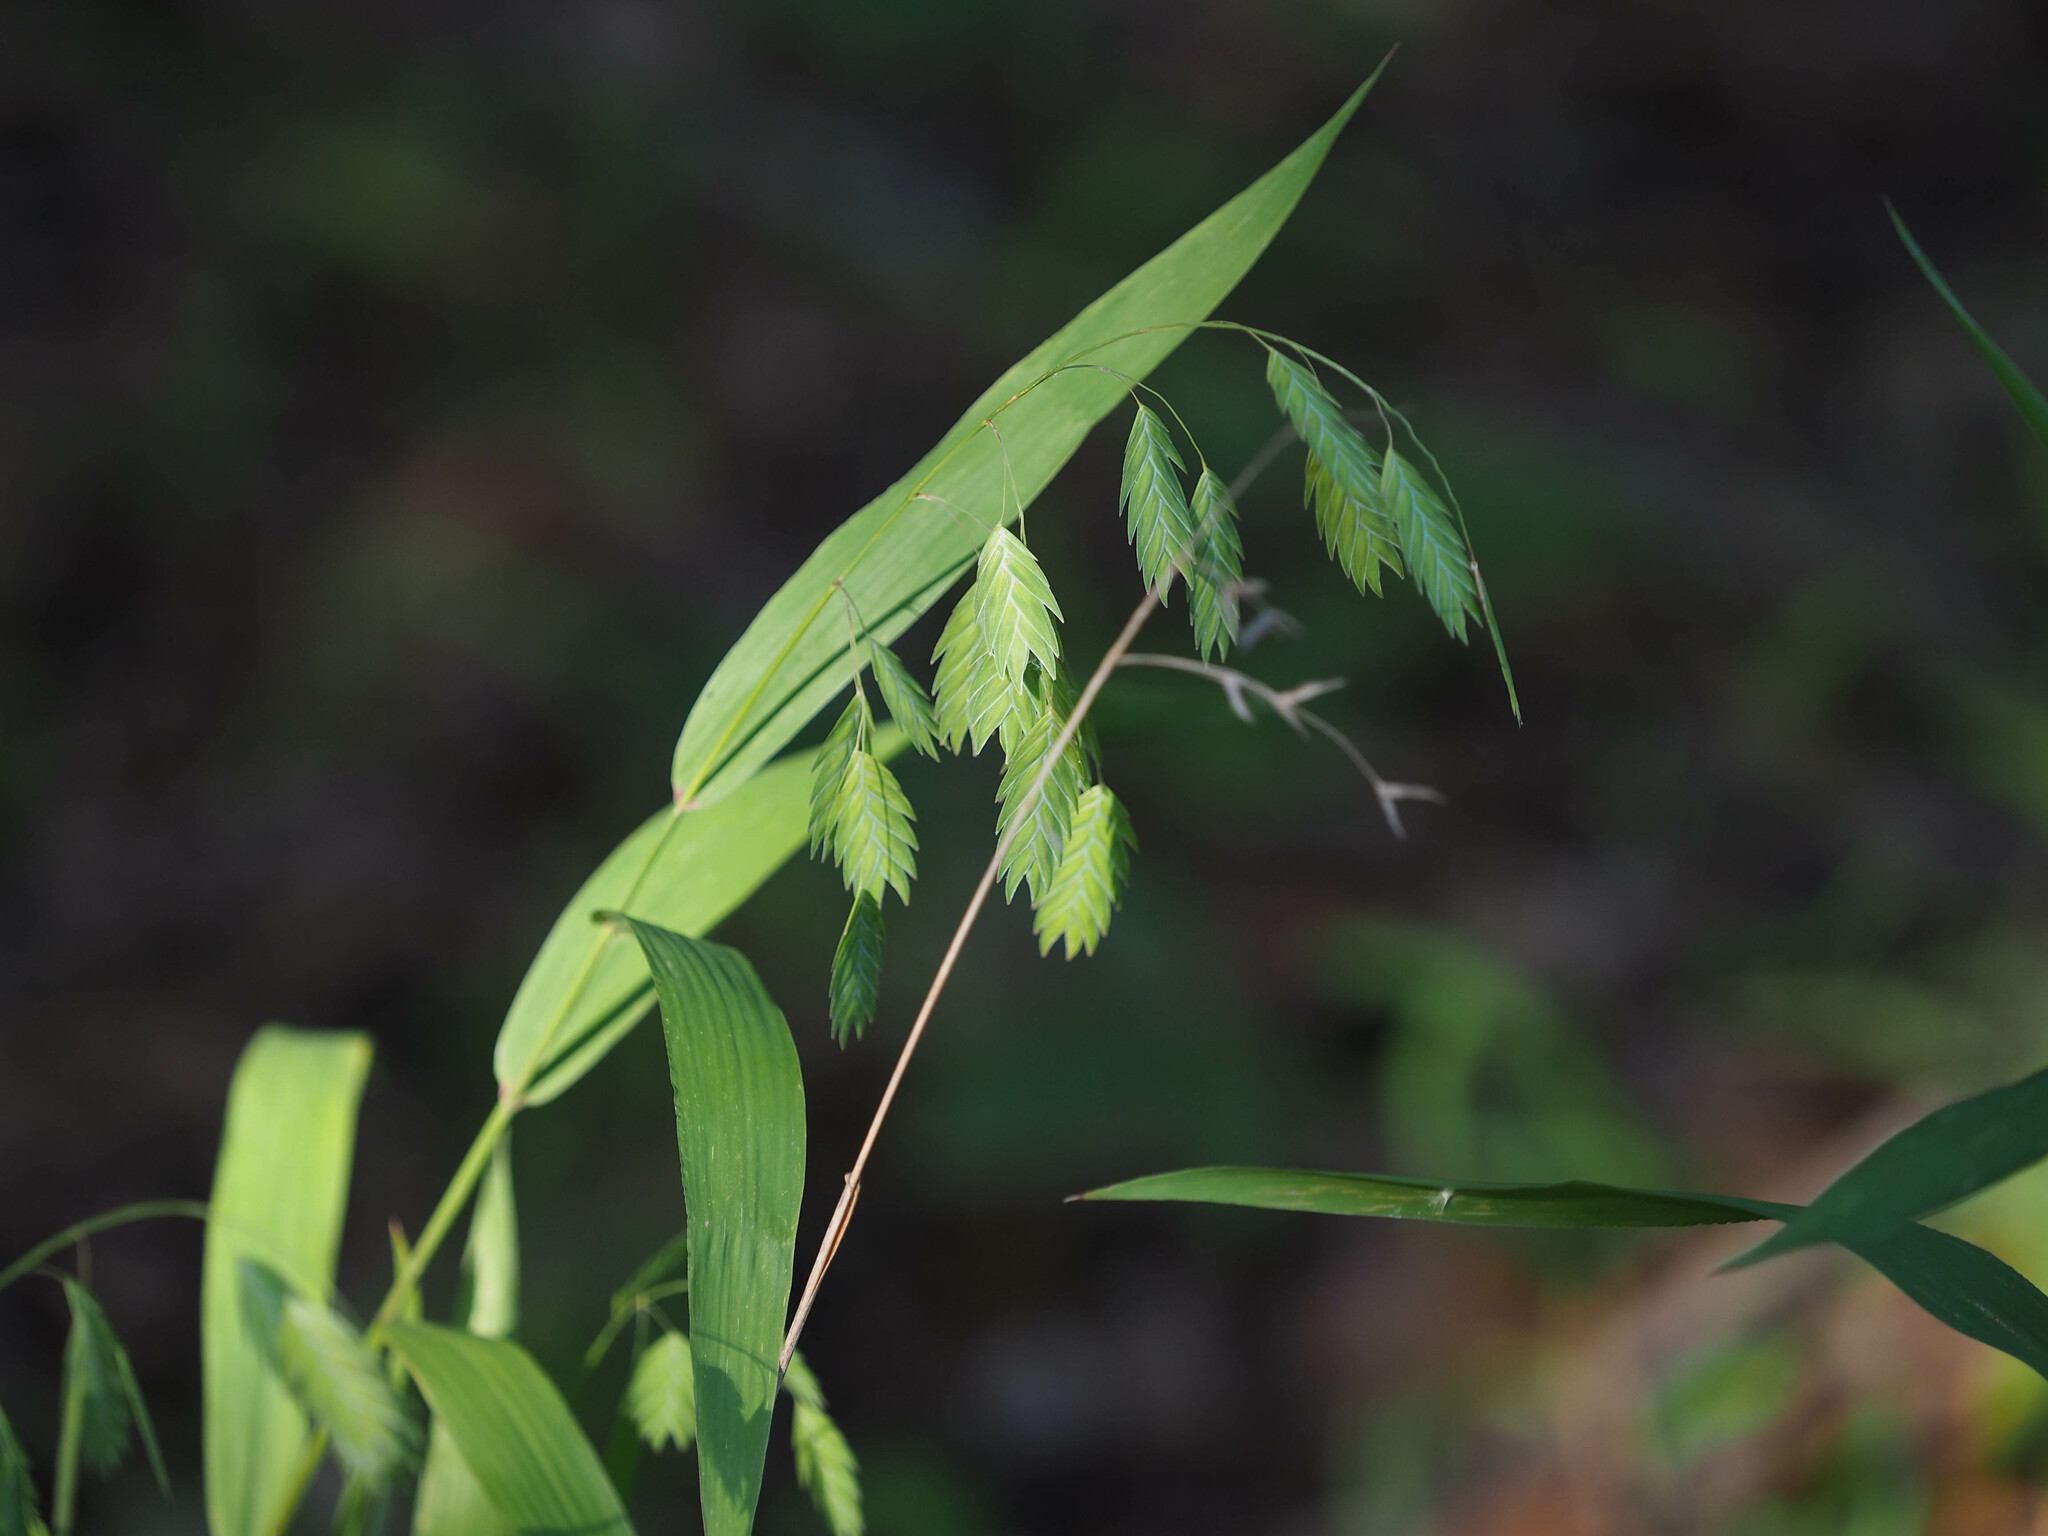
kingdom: Plantae
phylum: Tracheophyta
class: Liliopsida
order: Poales
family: Poaceae
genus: Chasmanthium
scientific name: Chasmanthium latifolium
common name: Broad-leaved chasmanthium
